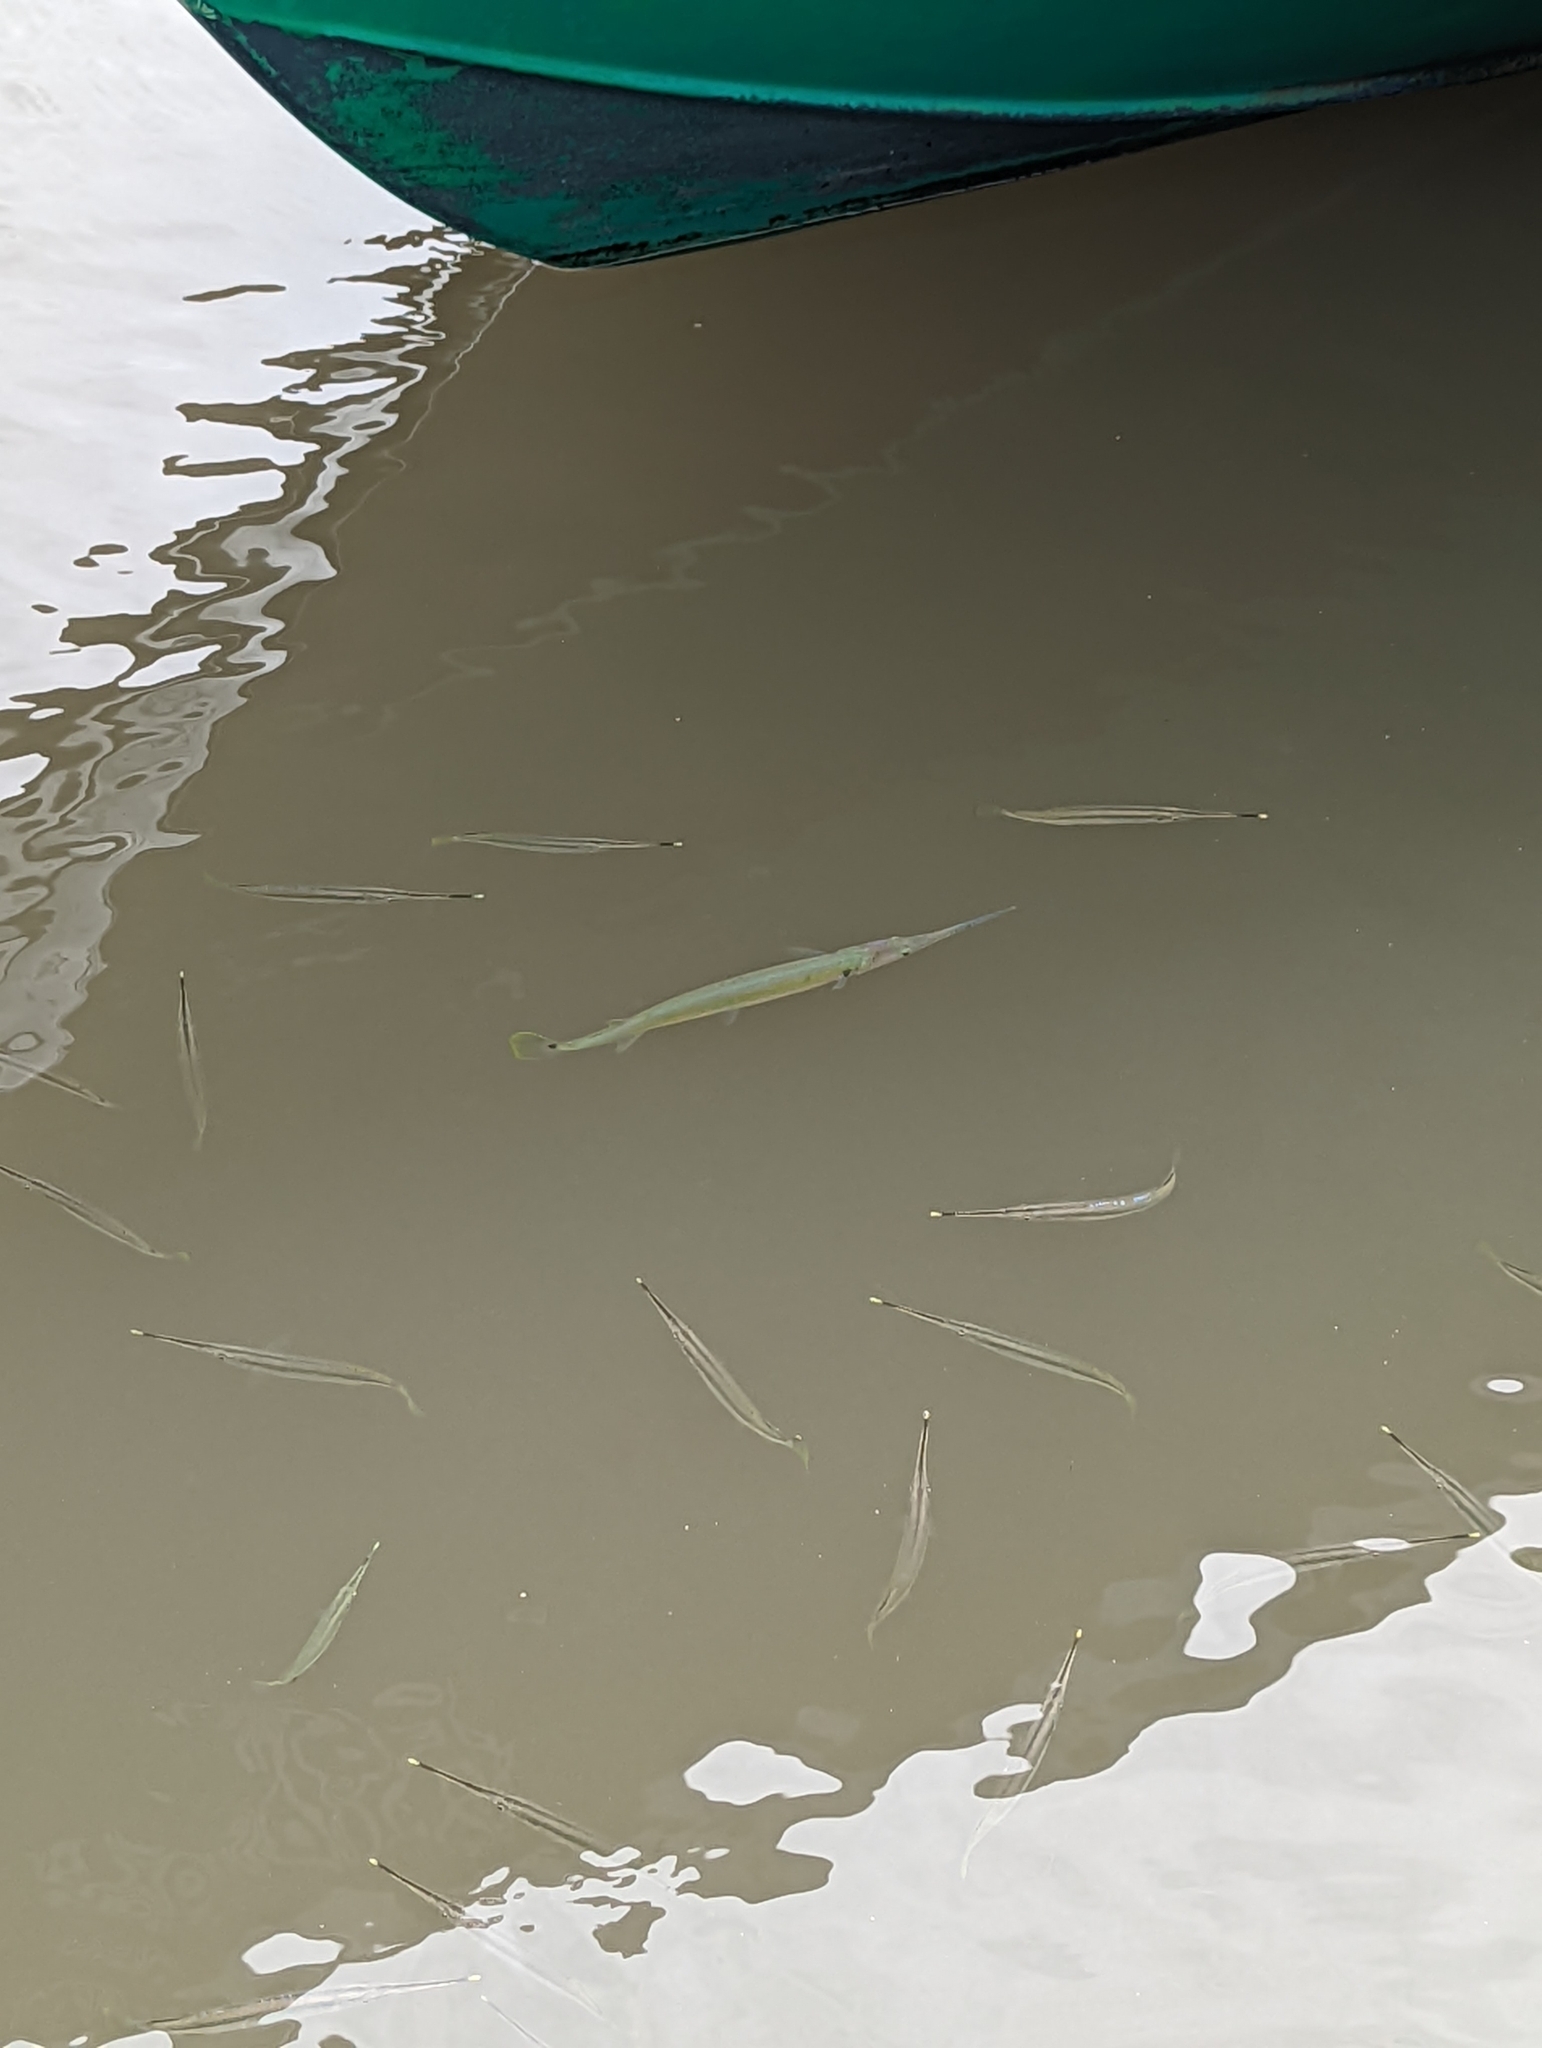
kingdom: Animalia
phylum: Chordata
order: Beloniformes
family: Belonidae
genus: Strongylura
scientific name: Strongylura strongylura
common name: Spottail needlefish
